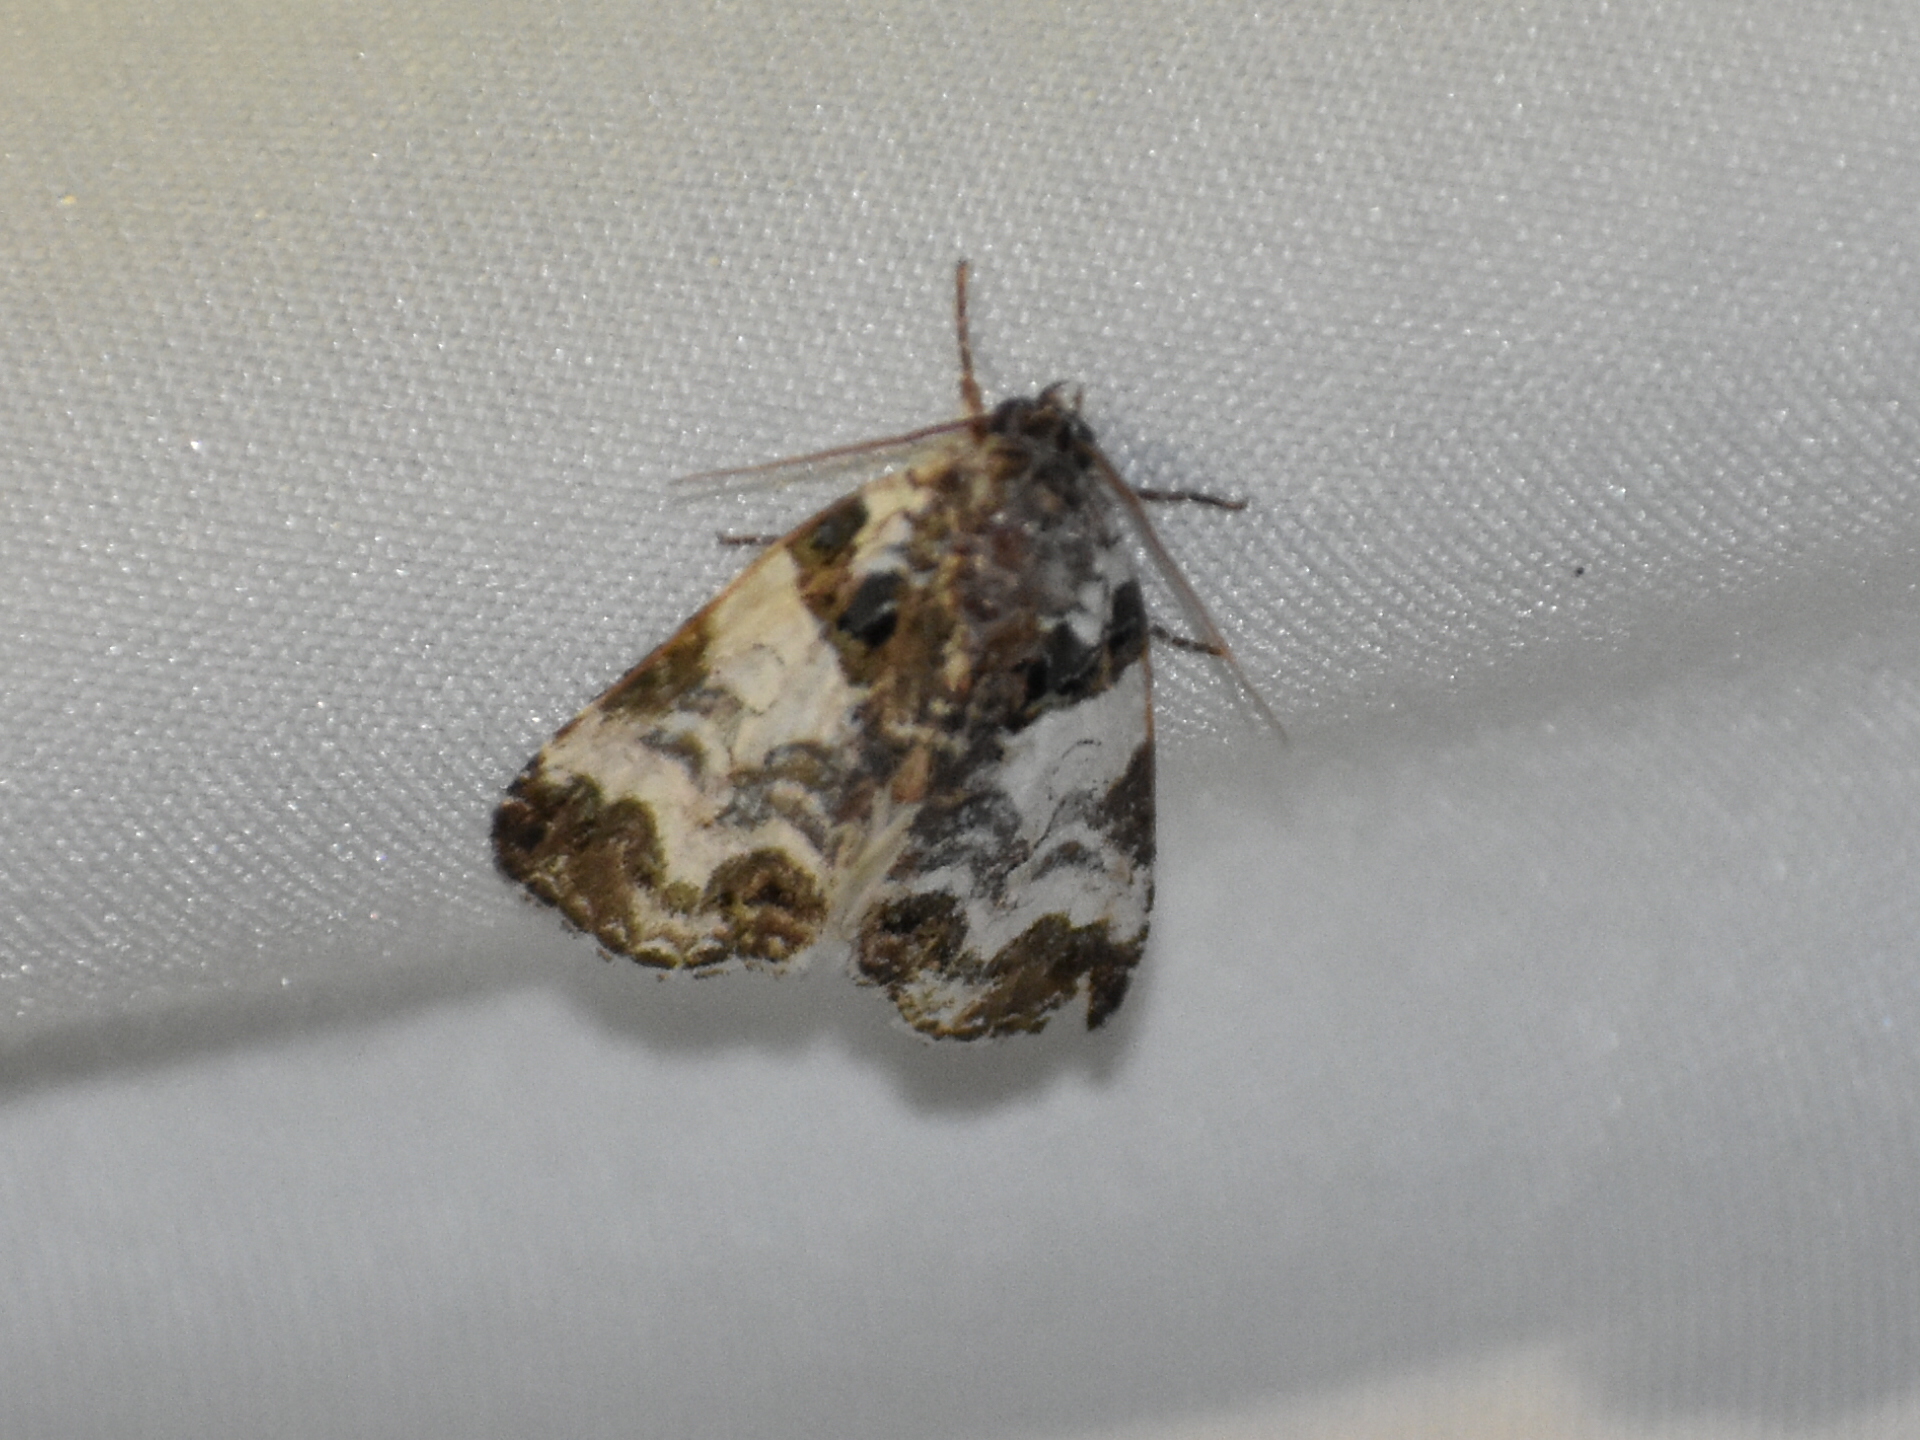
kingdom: Animalia
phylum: Arthropoda
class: Insecta
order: Lepidoptera
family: Noctuidae
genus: Cerma
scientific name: Cerma cerintha
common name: Tufted bird-dropping moth
